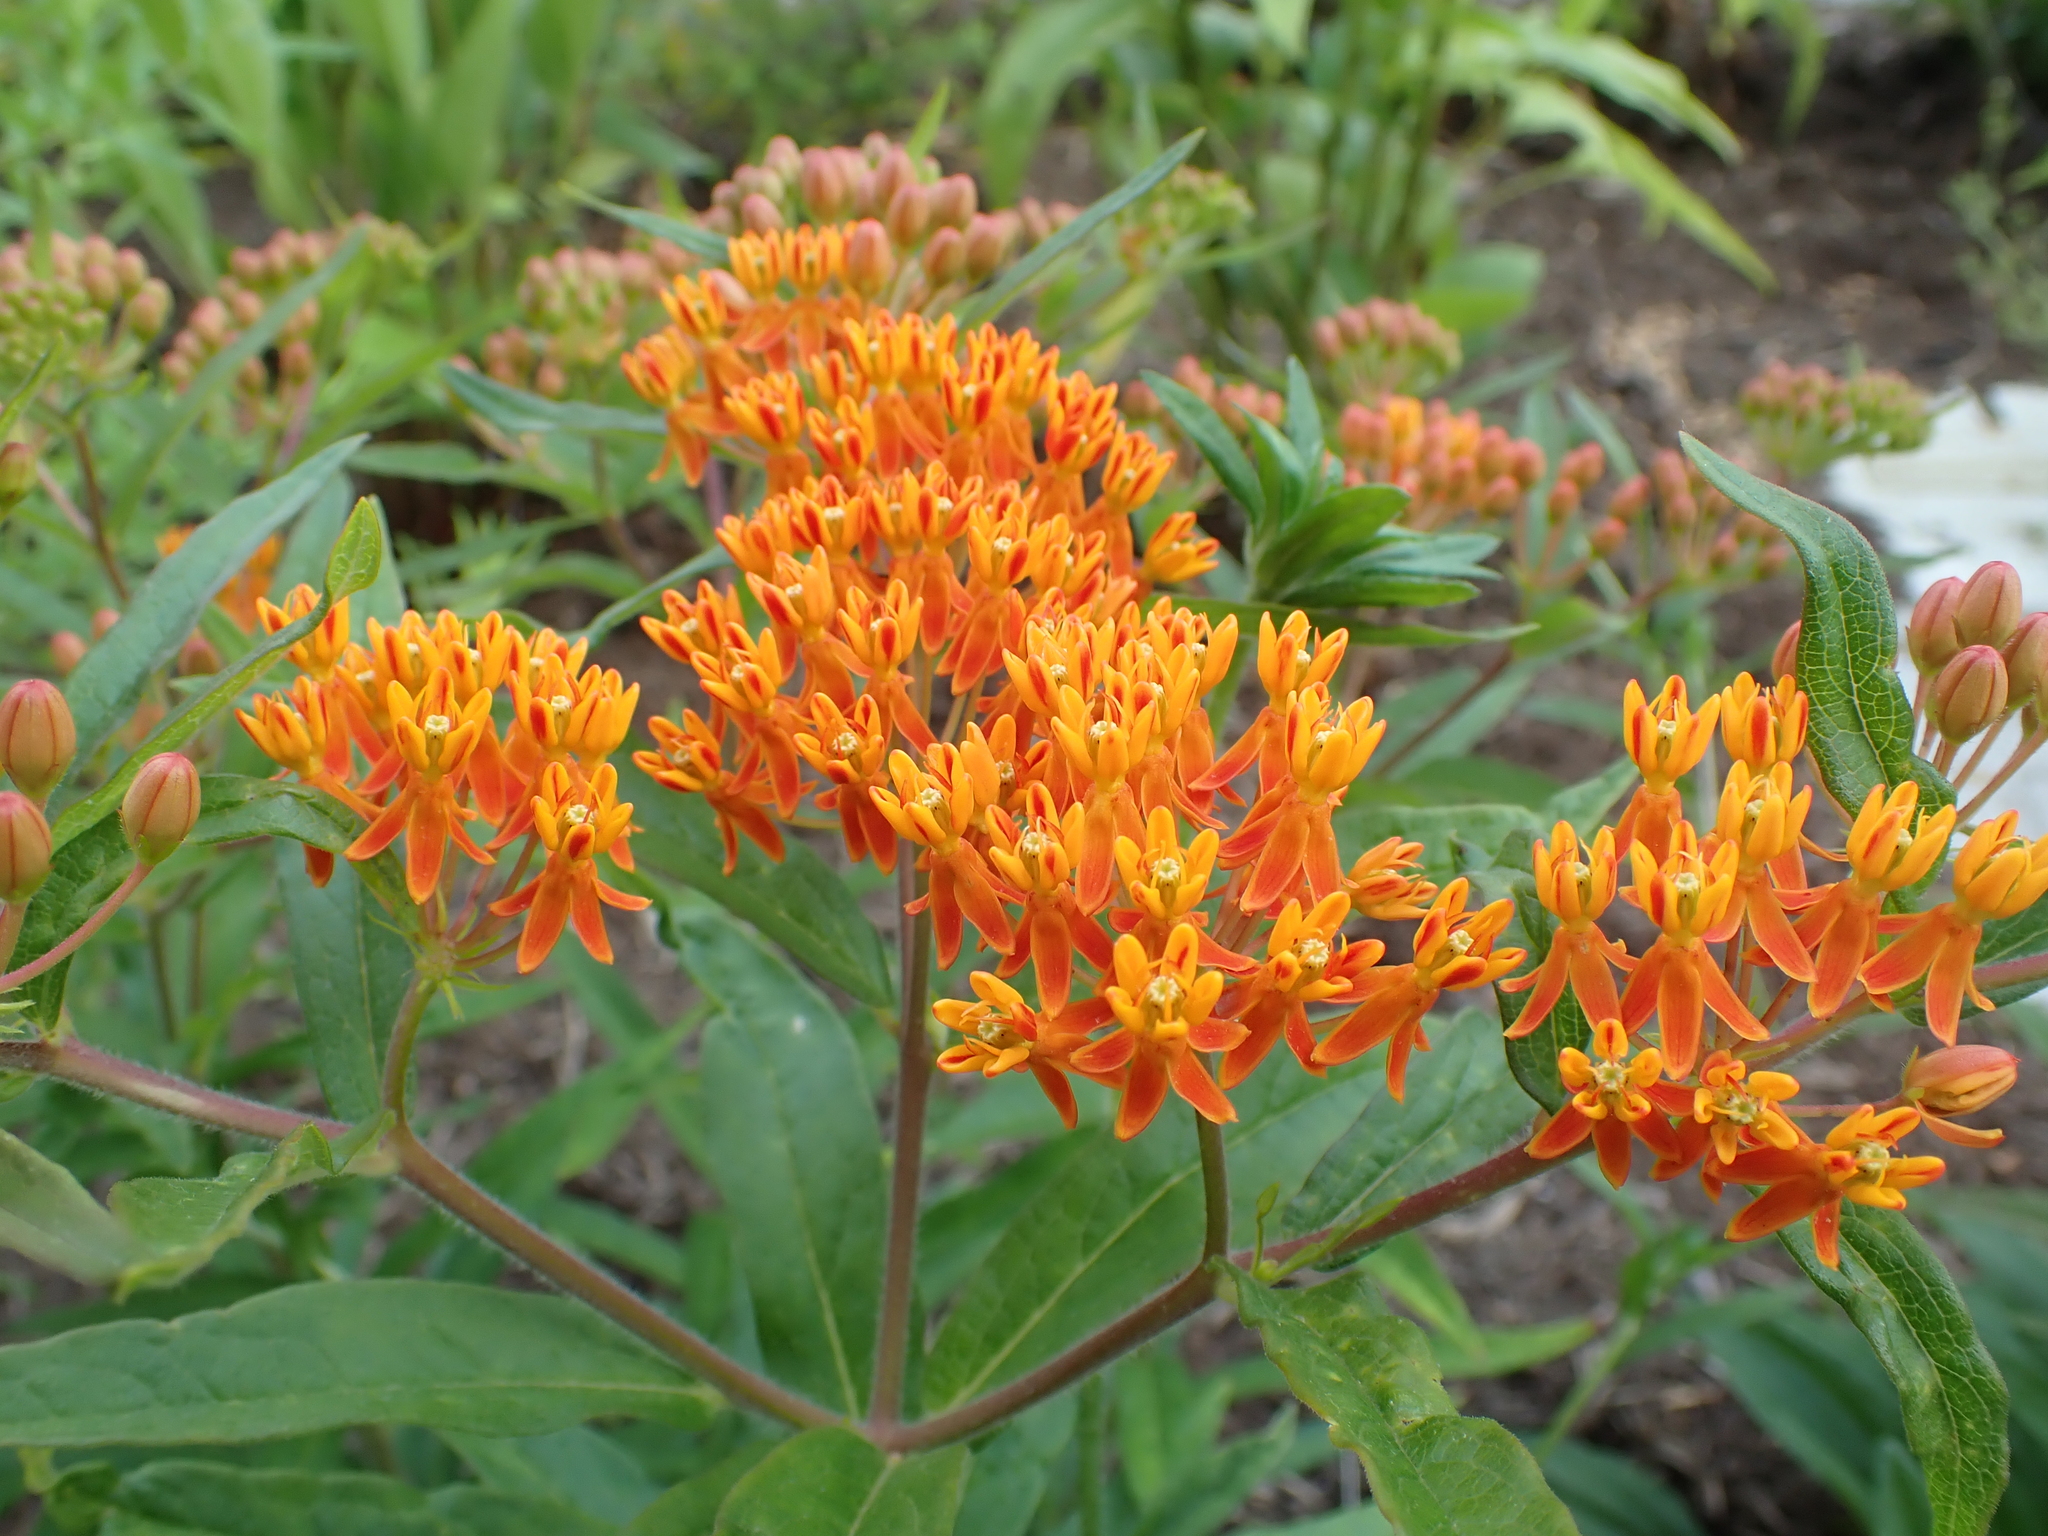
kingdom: Plantae
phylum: Tracheophyta
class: Magnoliopsida
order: Gentianales
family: Apocynaceae
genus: Asclepias
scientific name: Asclepias tuberosa
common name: Butterfly milkweed
